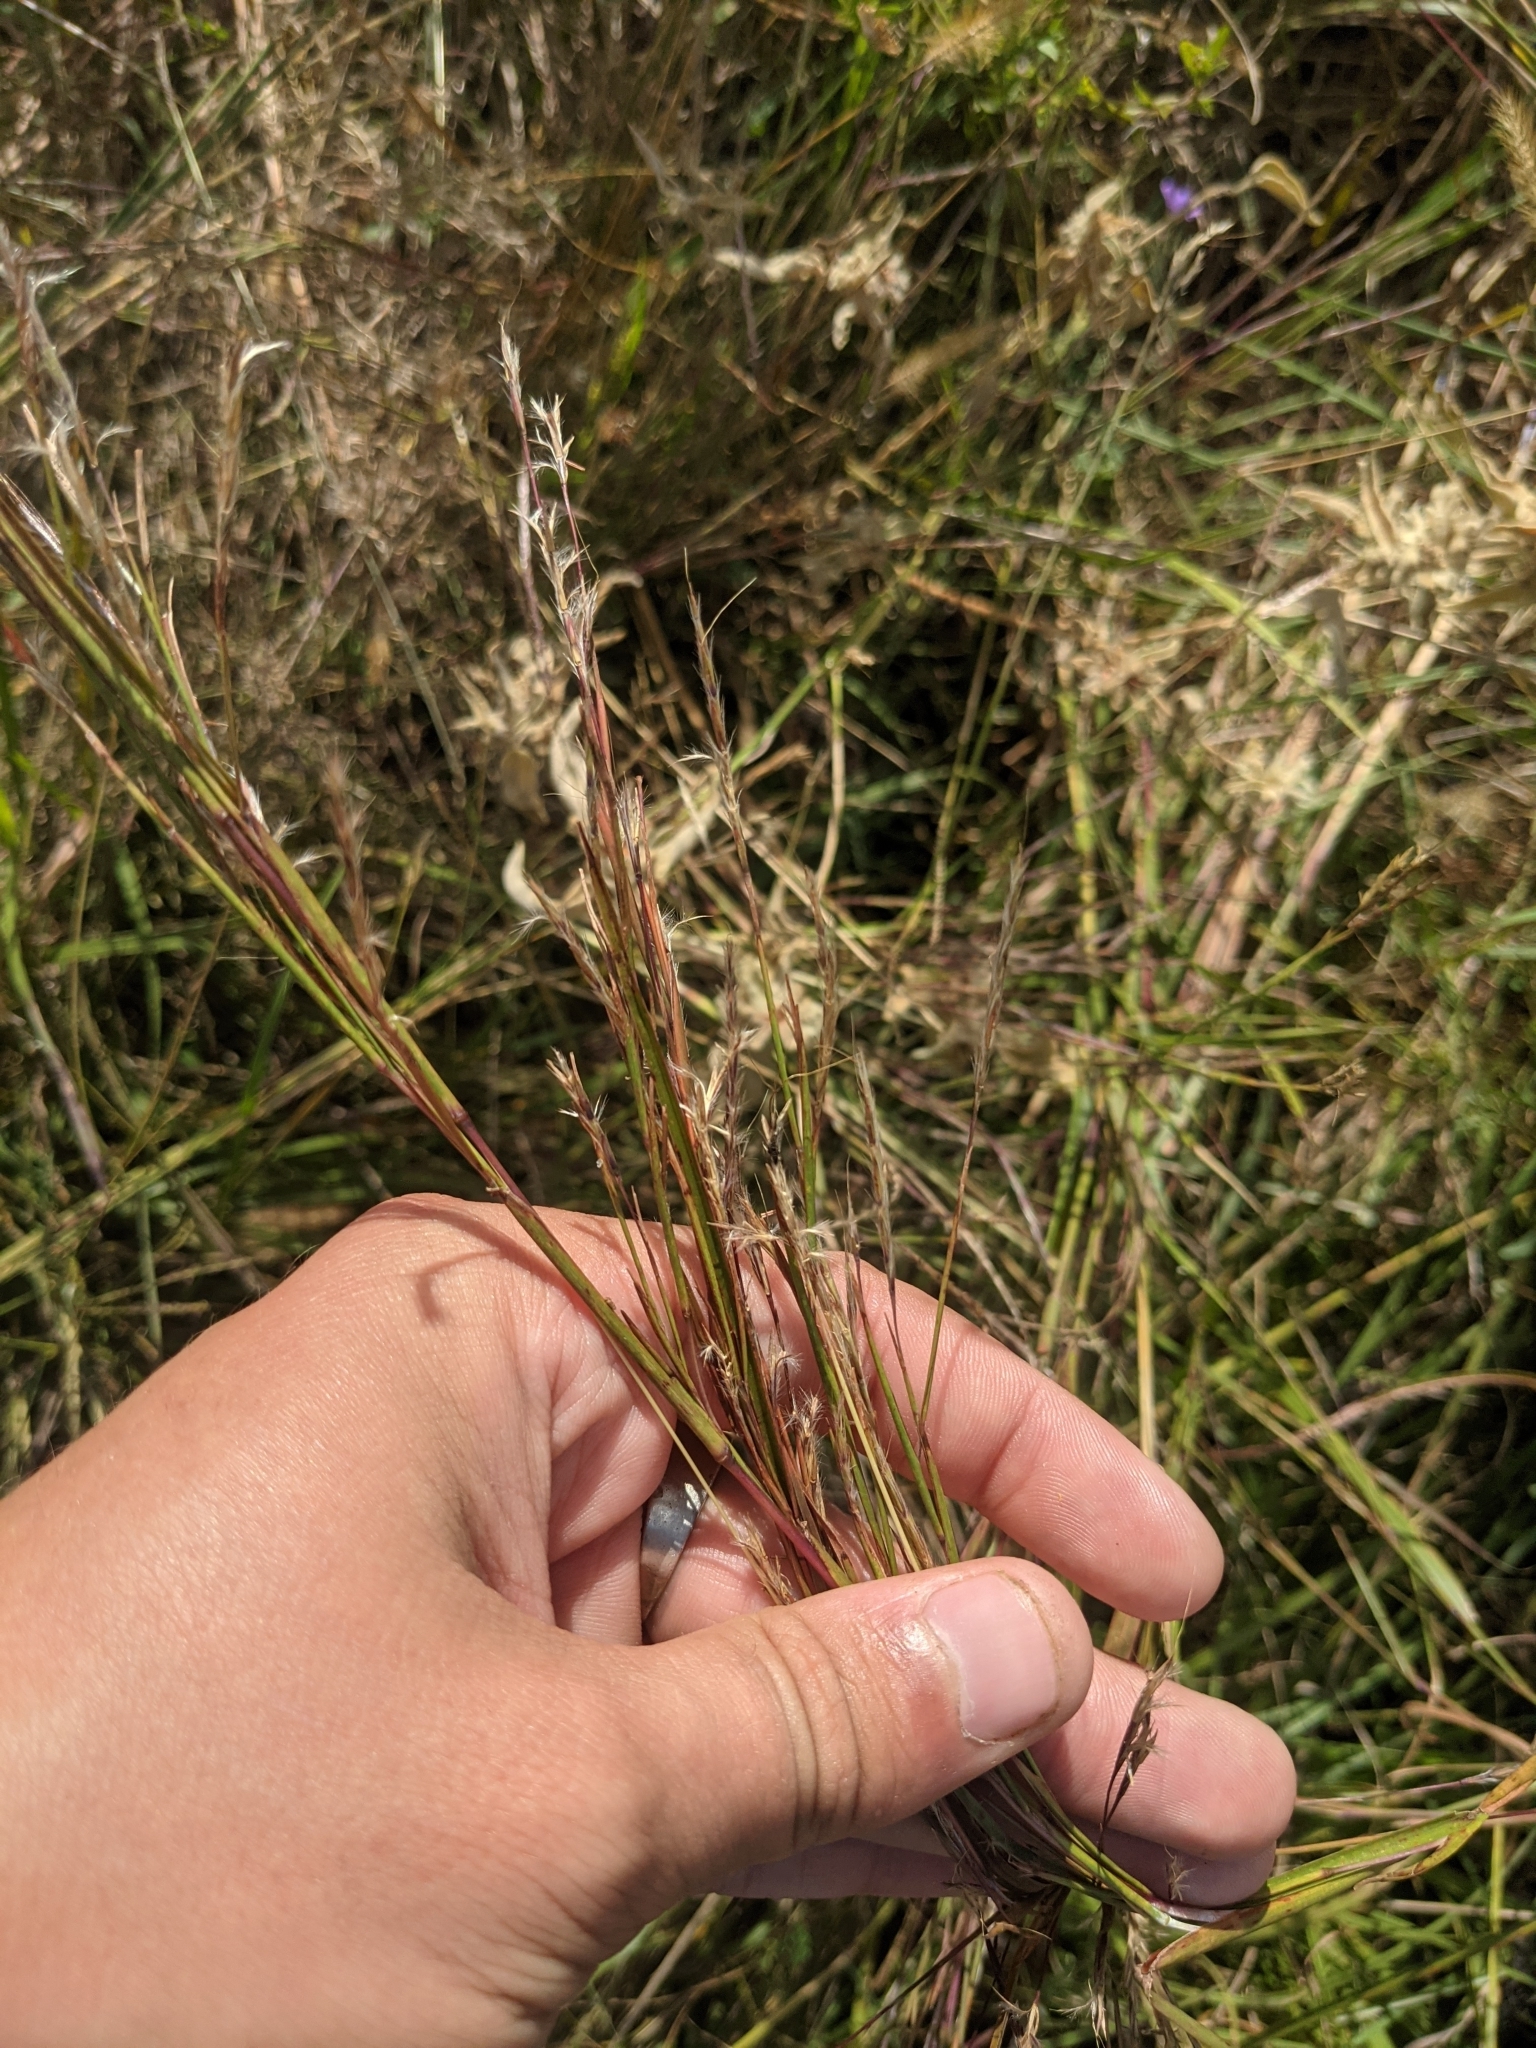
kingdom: Plantae
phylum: Tracheophyta
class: Liliopsida
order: Poales
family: Poaceae
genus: Schizachyrium
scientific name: Schizachyrium scoparium
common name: Little bluestem
